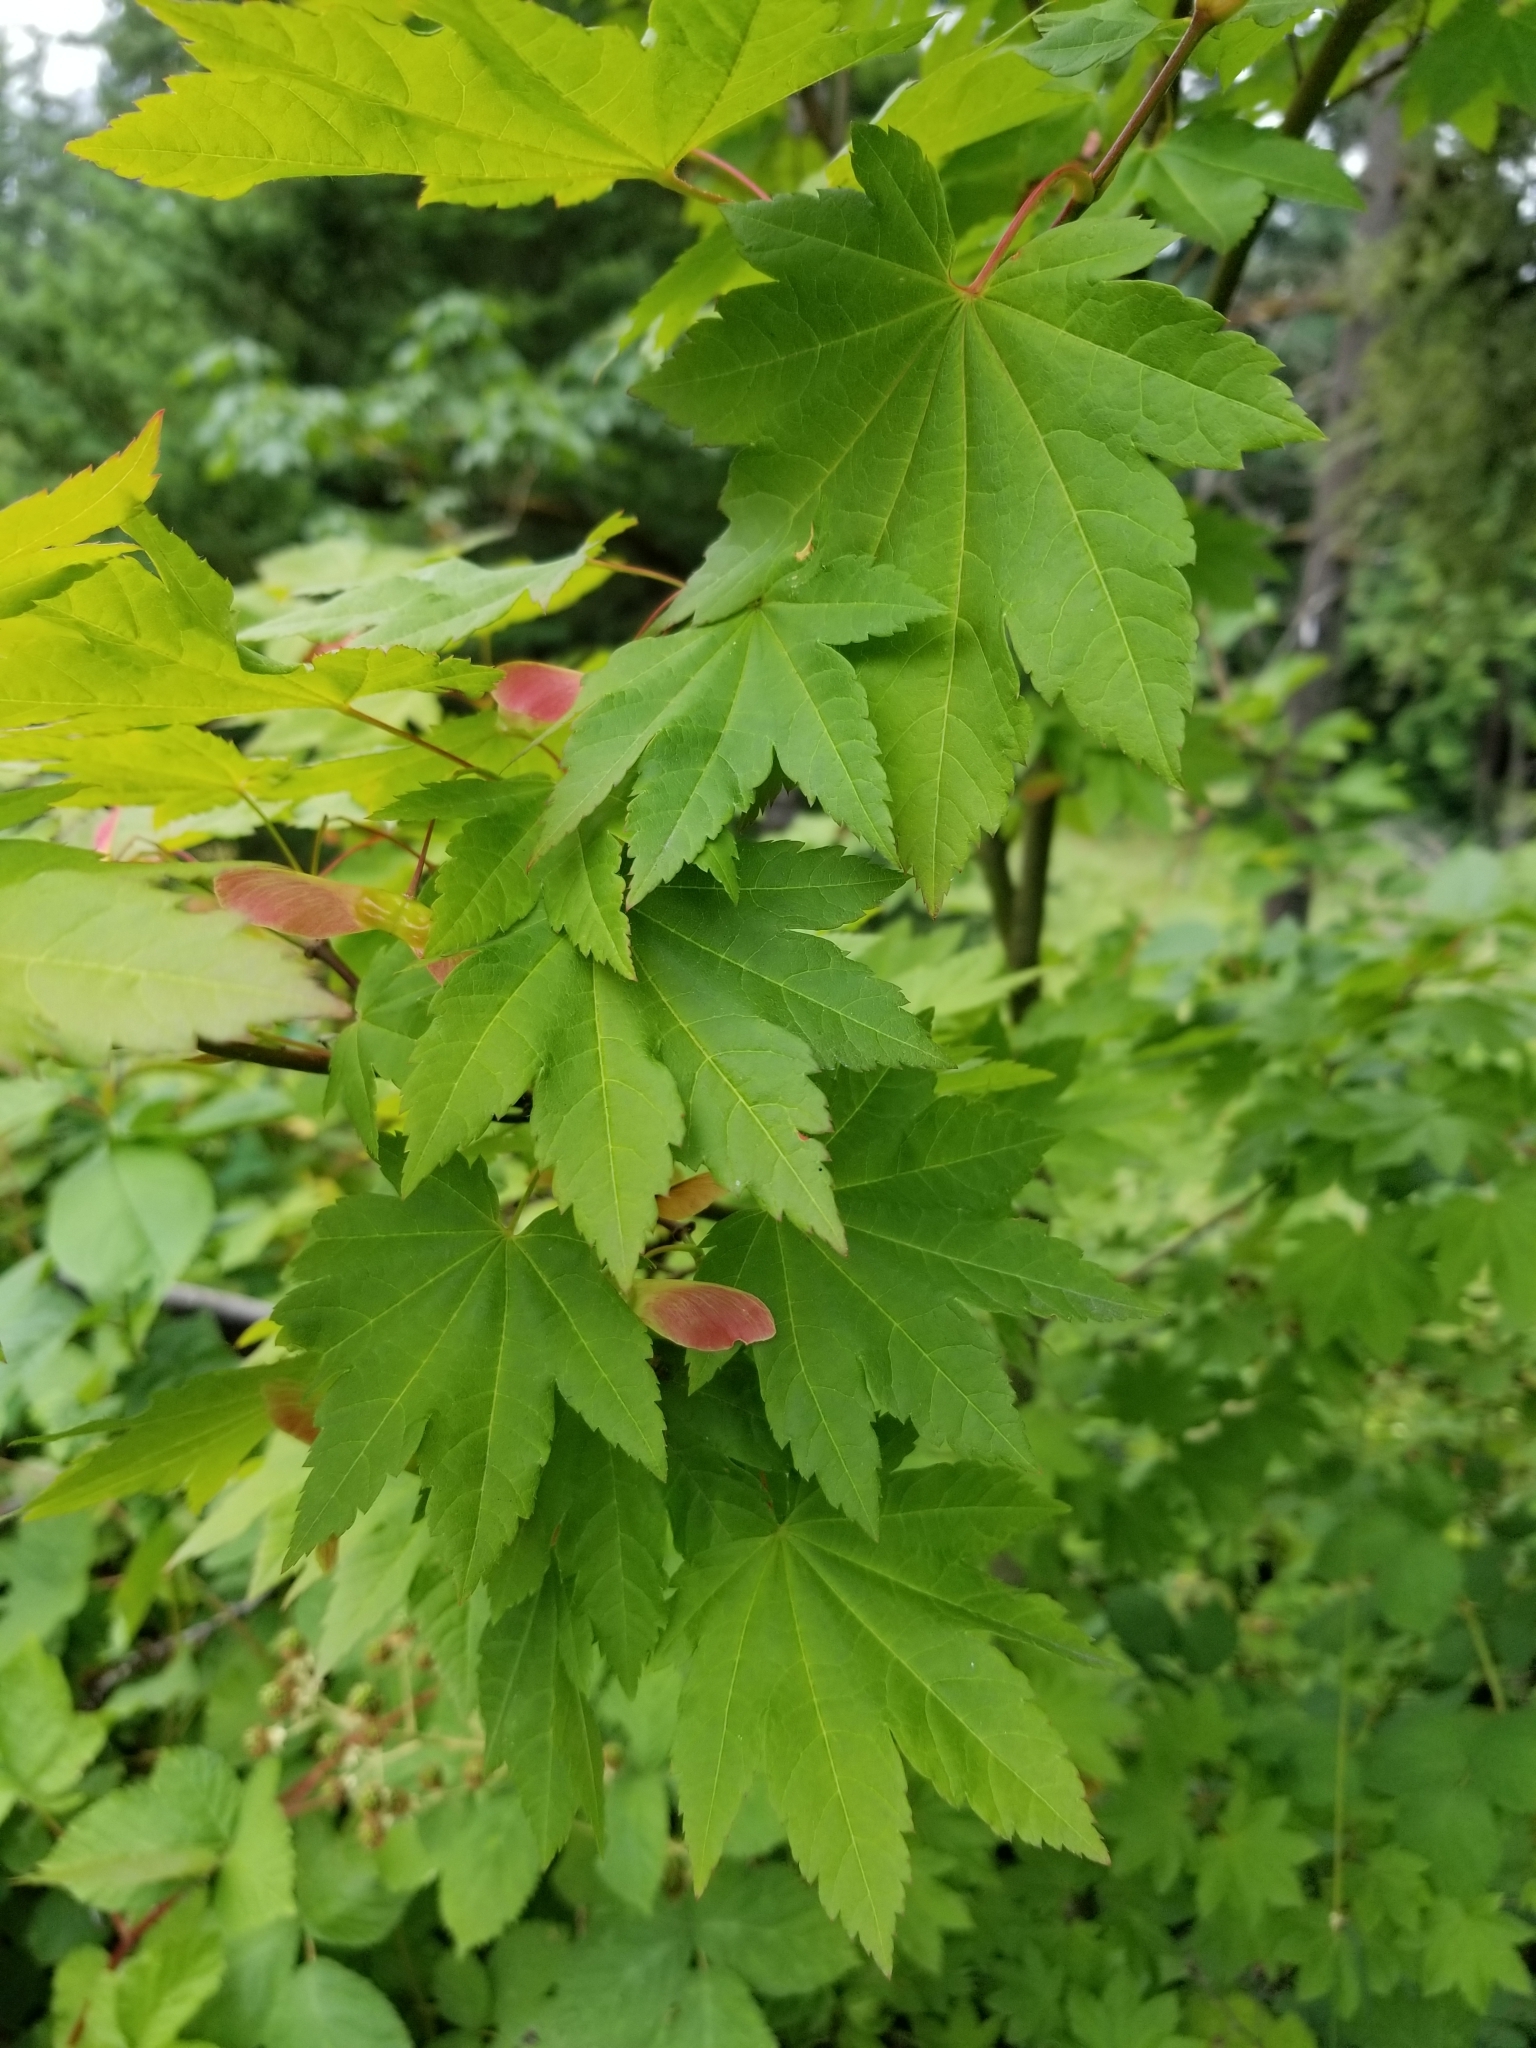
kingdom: Plantae
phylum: Tracheophyta
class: Magnoliopsida
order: Sapindales
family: Sapindaceae
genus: Acer
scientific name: Acer circinatum
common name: Vine maple
